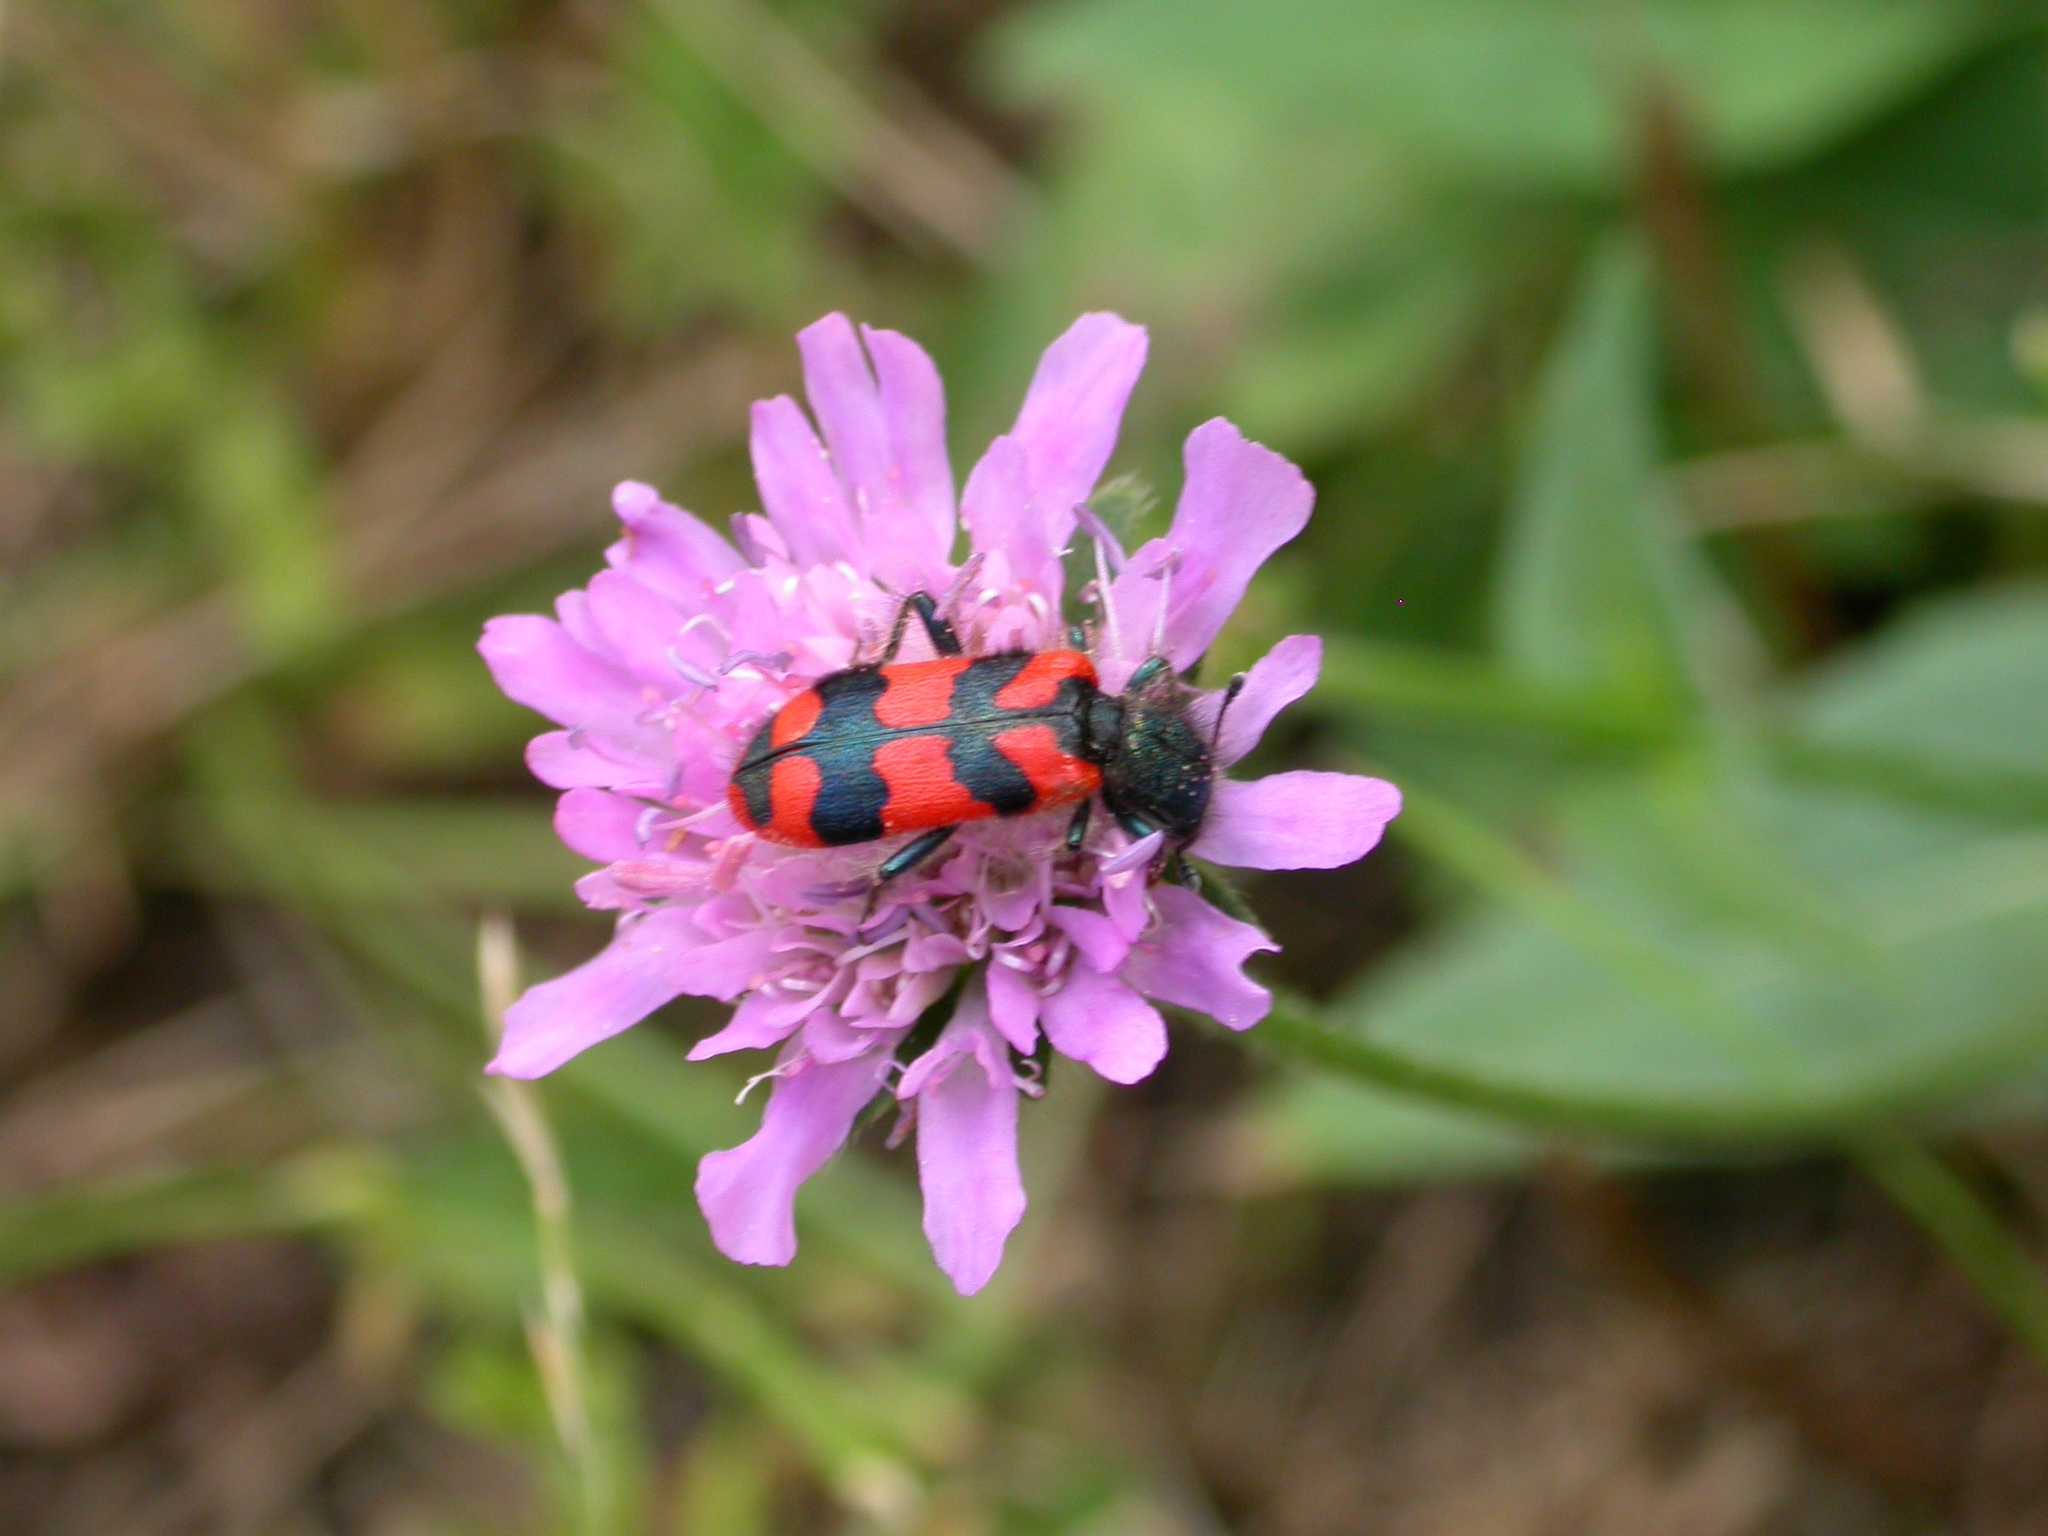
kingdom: Animalia
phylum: Arthropoda
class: Insecta
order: Coleoptera
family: Cleridae
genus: Trichodes
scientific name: Trichodes alvearius
